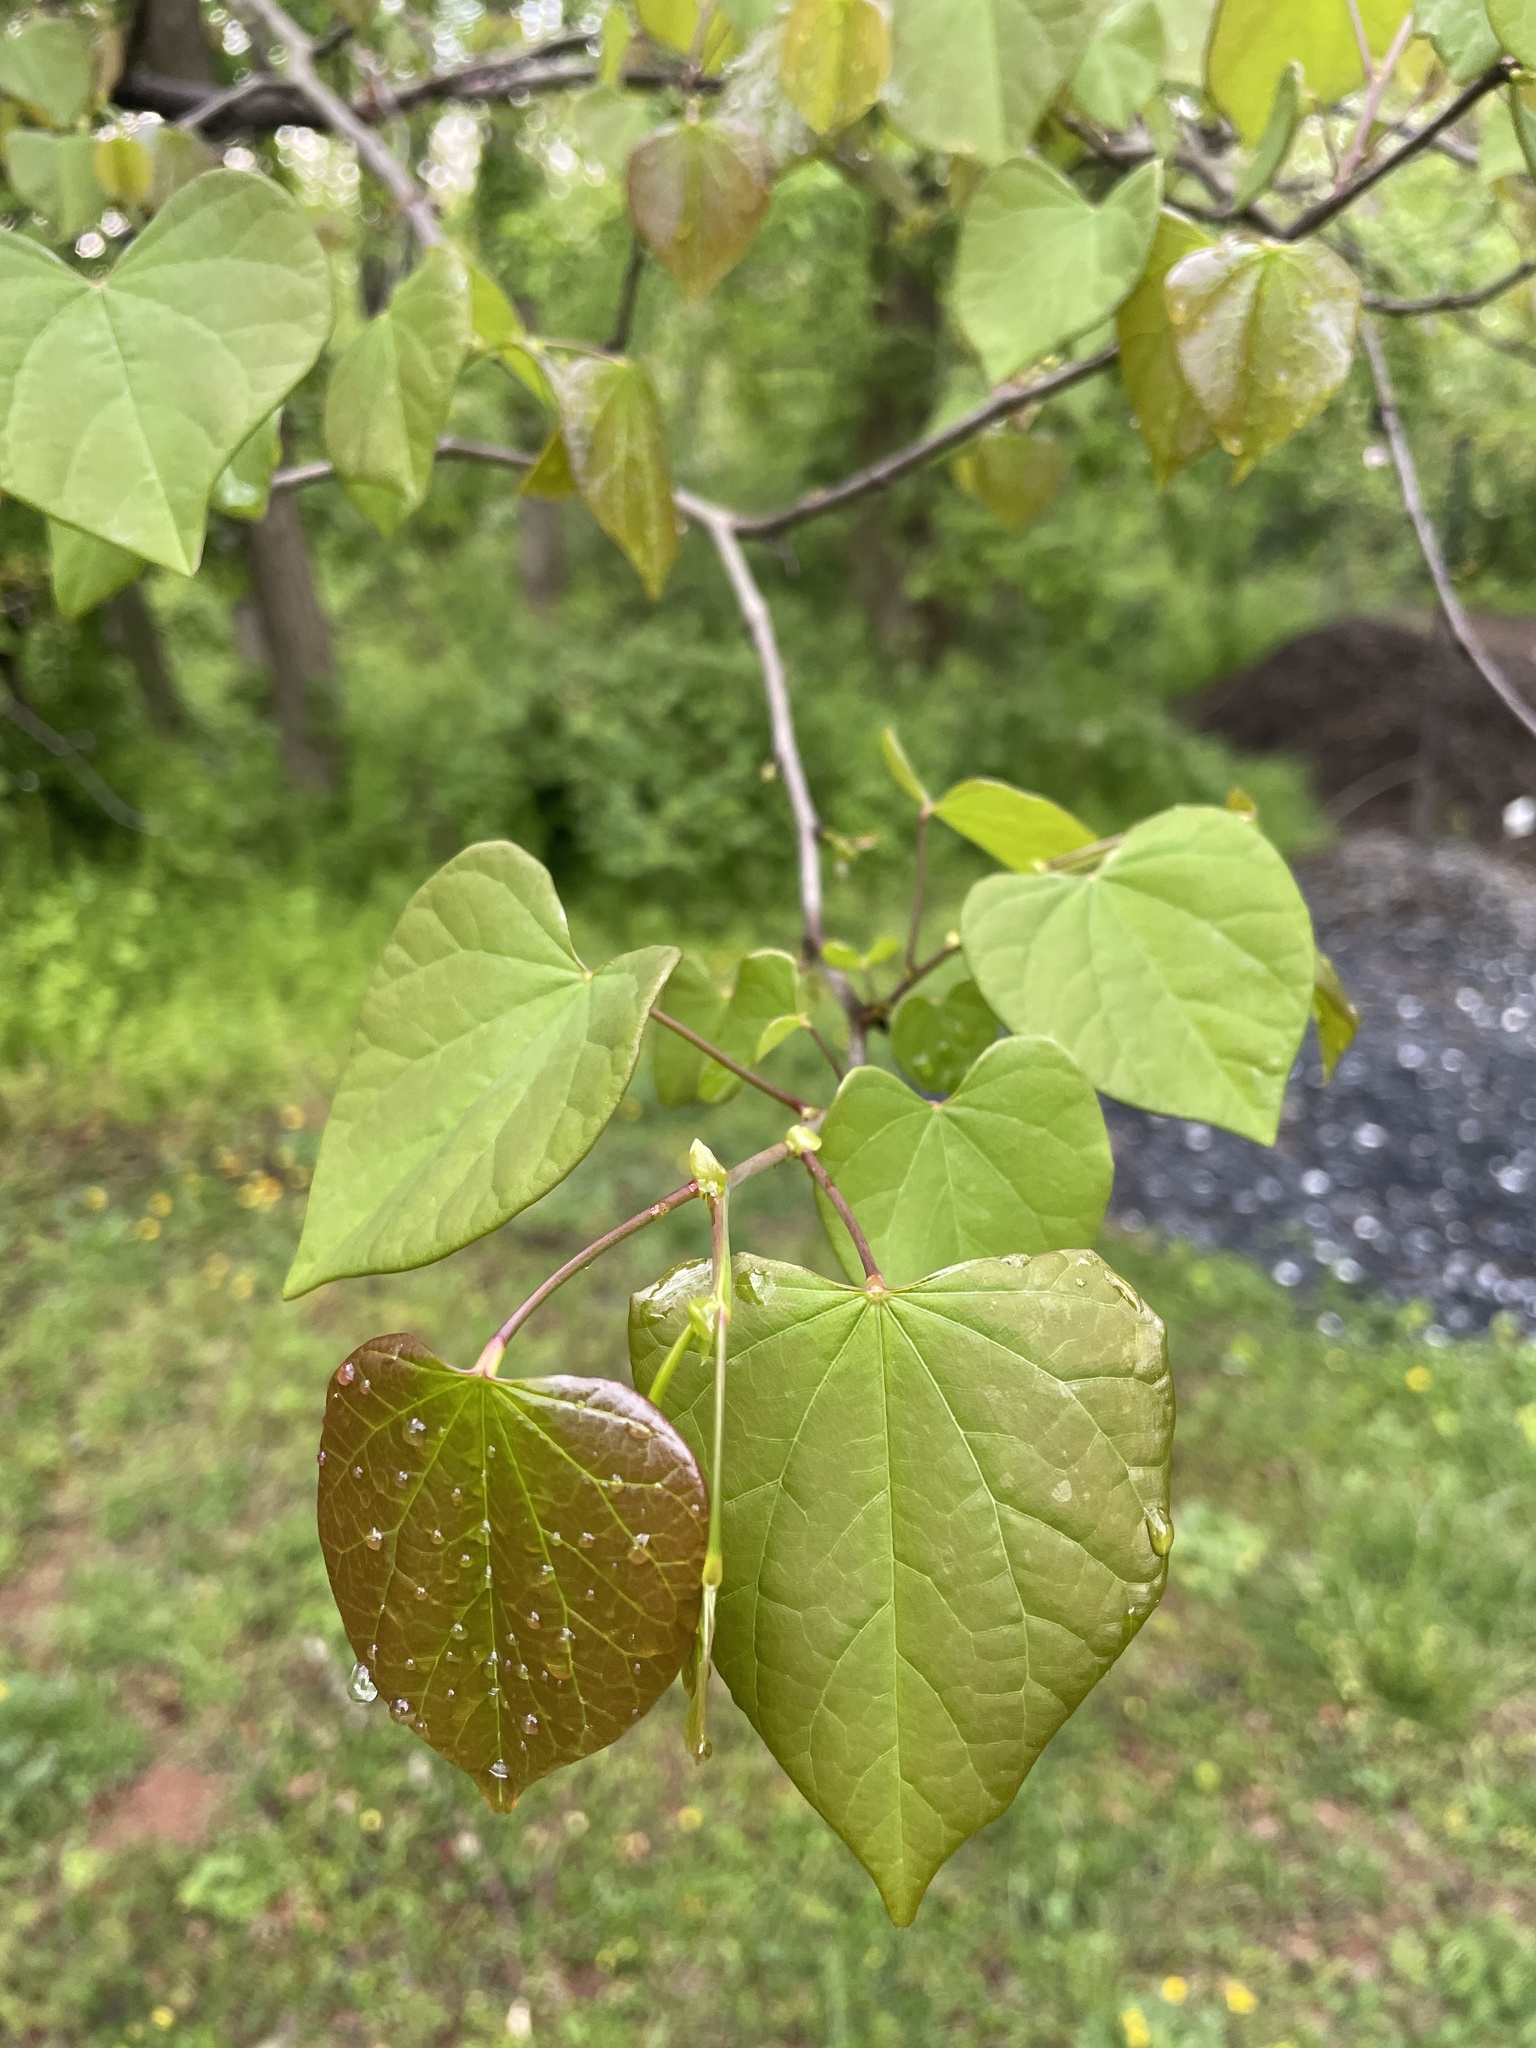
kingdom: Plantae
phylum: Tracheophyta
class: Magnoliopsida
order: Fabales
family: Fabaceae
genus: Cercis
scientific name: Cercis canadensis
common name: Eastern redbud
